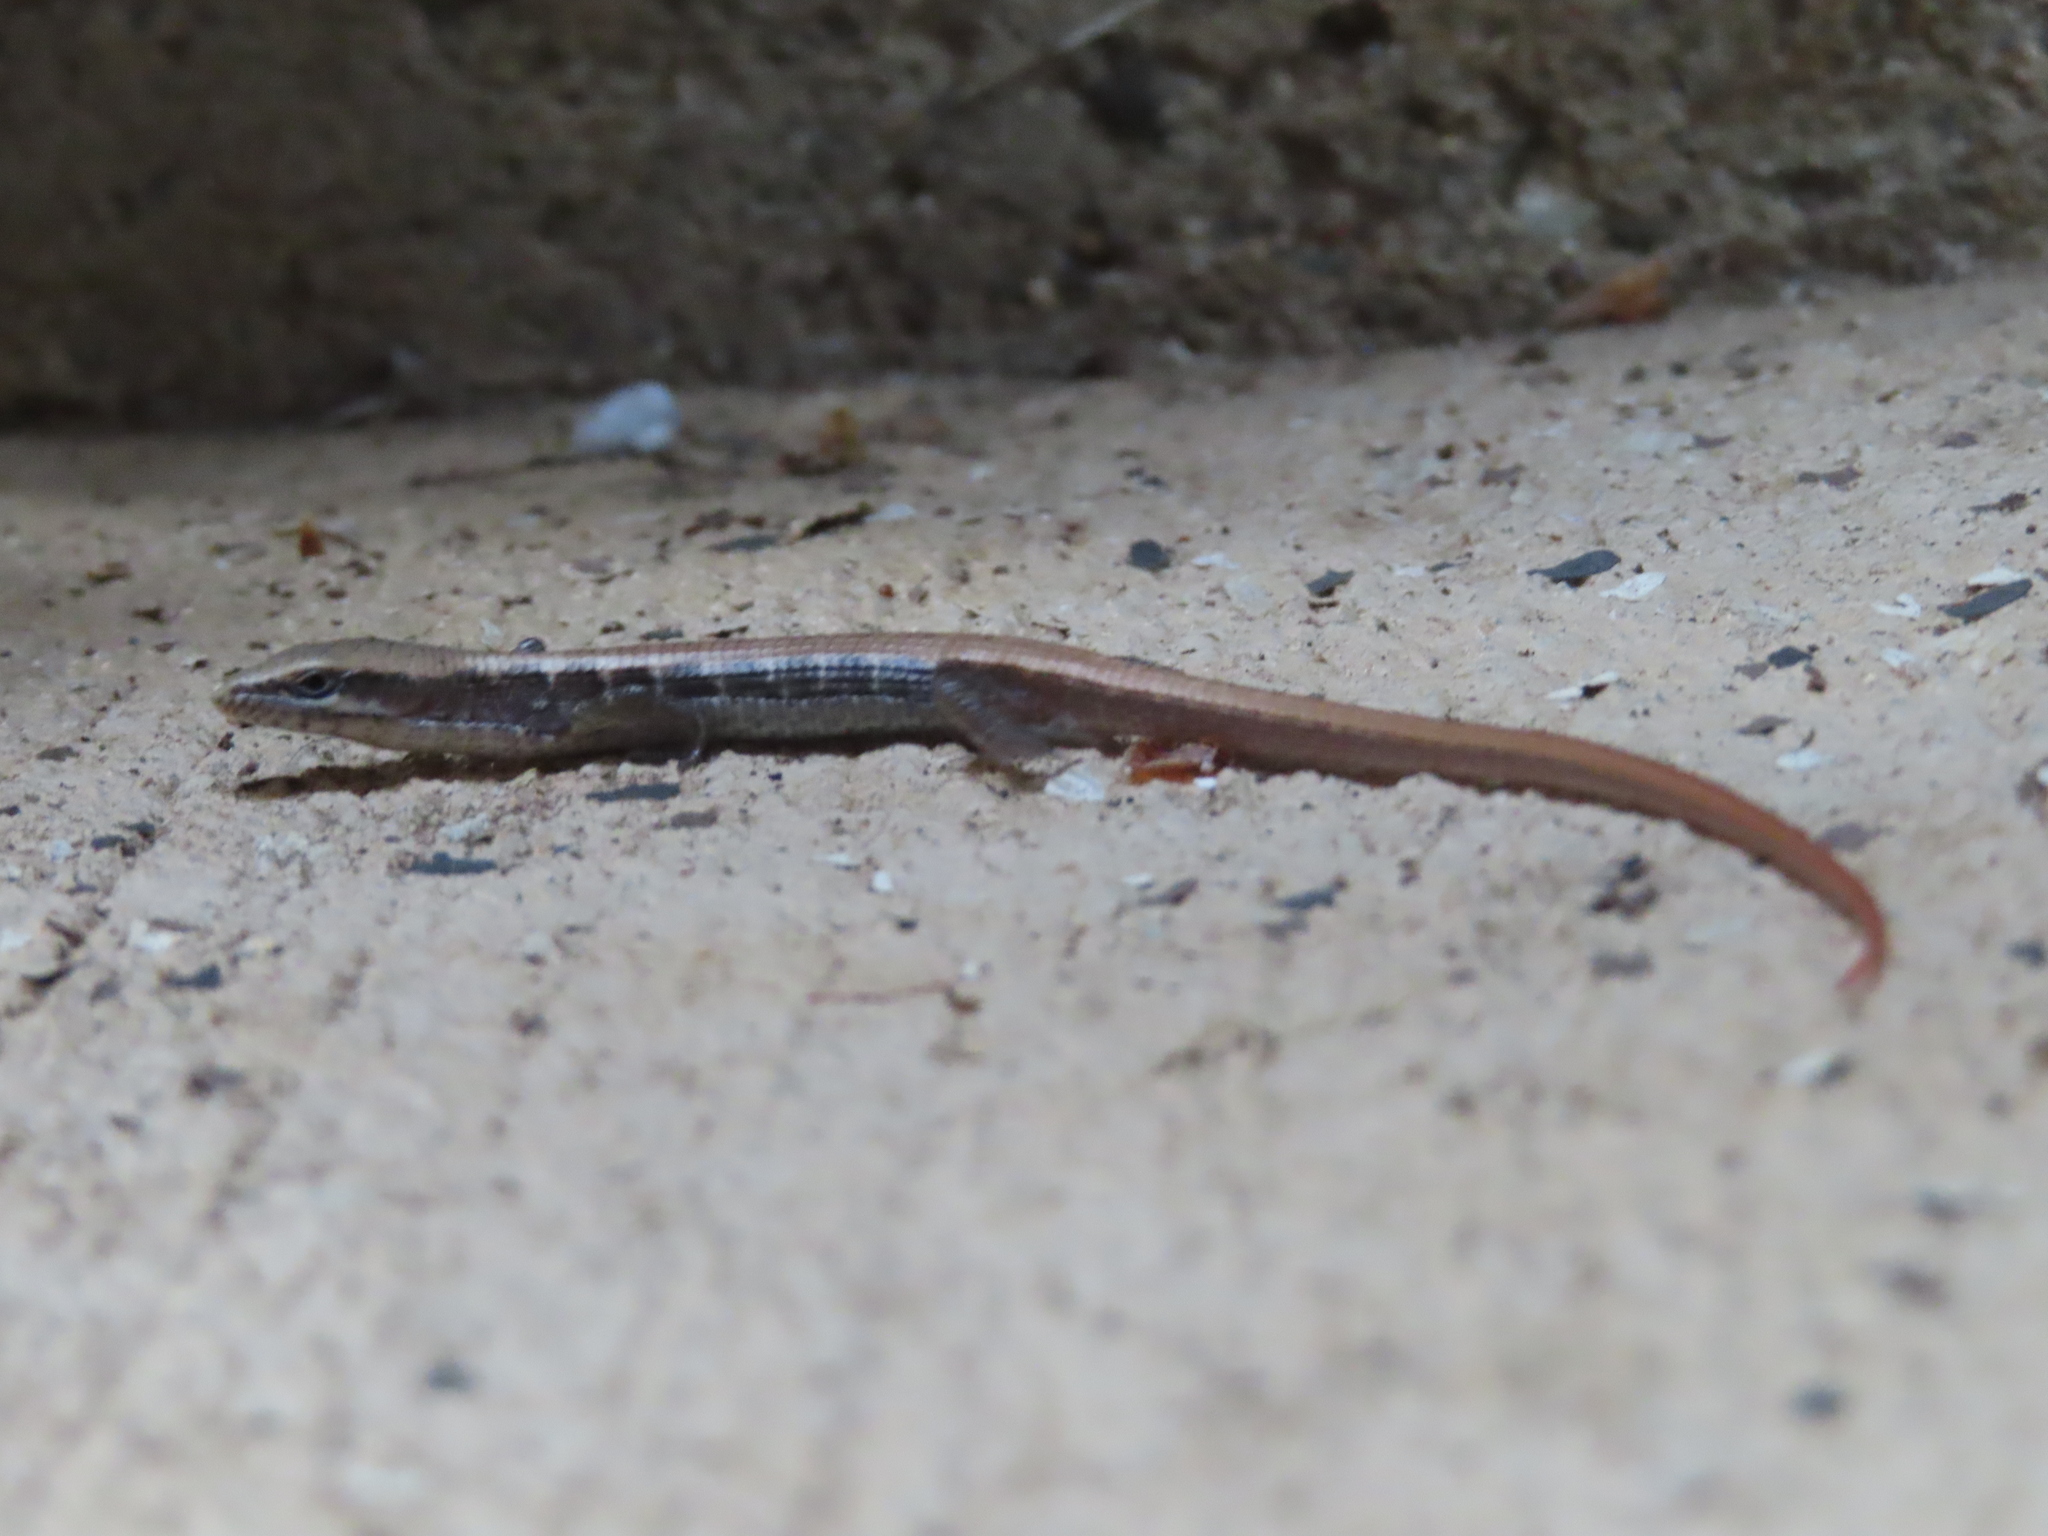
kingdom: Animalia
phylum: Chordata
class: Squamata
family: Anguidae
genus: Elgaria
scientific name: Elgaria multicarinata
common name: Southern alligator lizard
